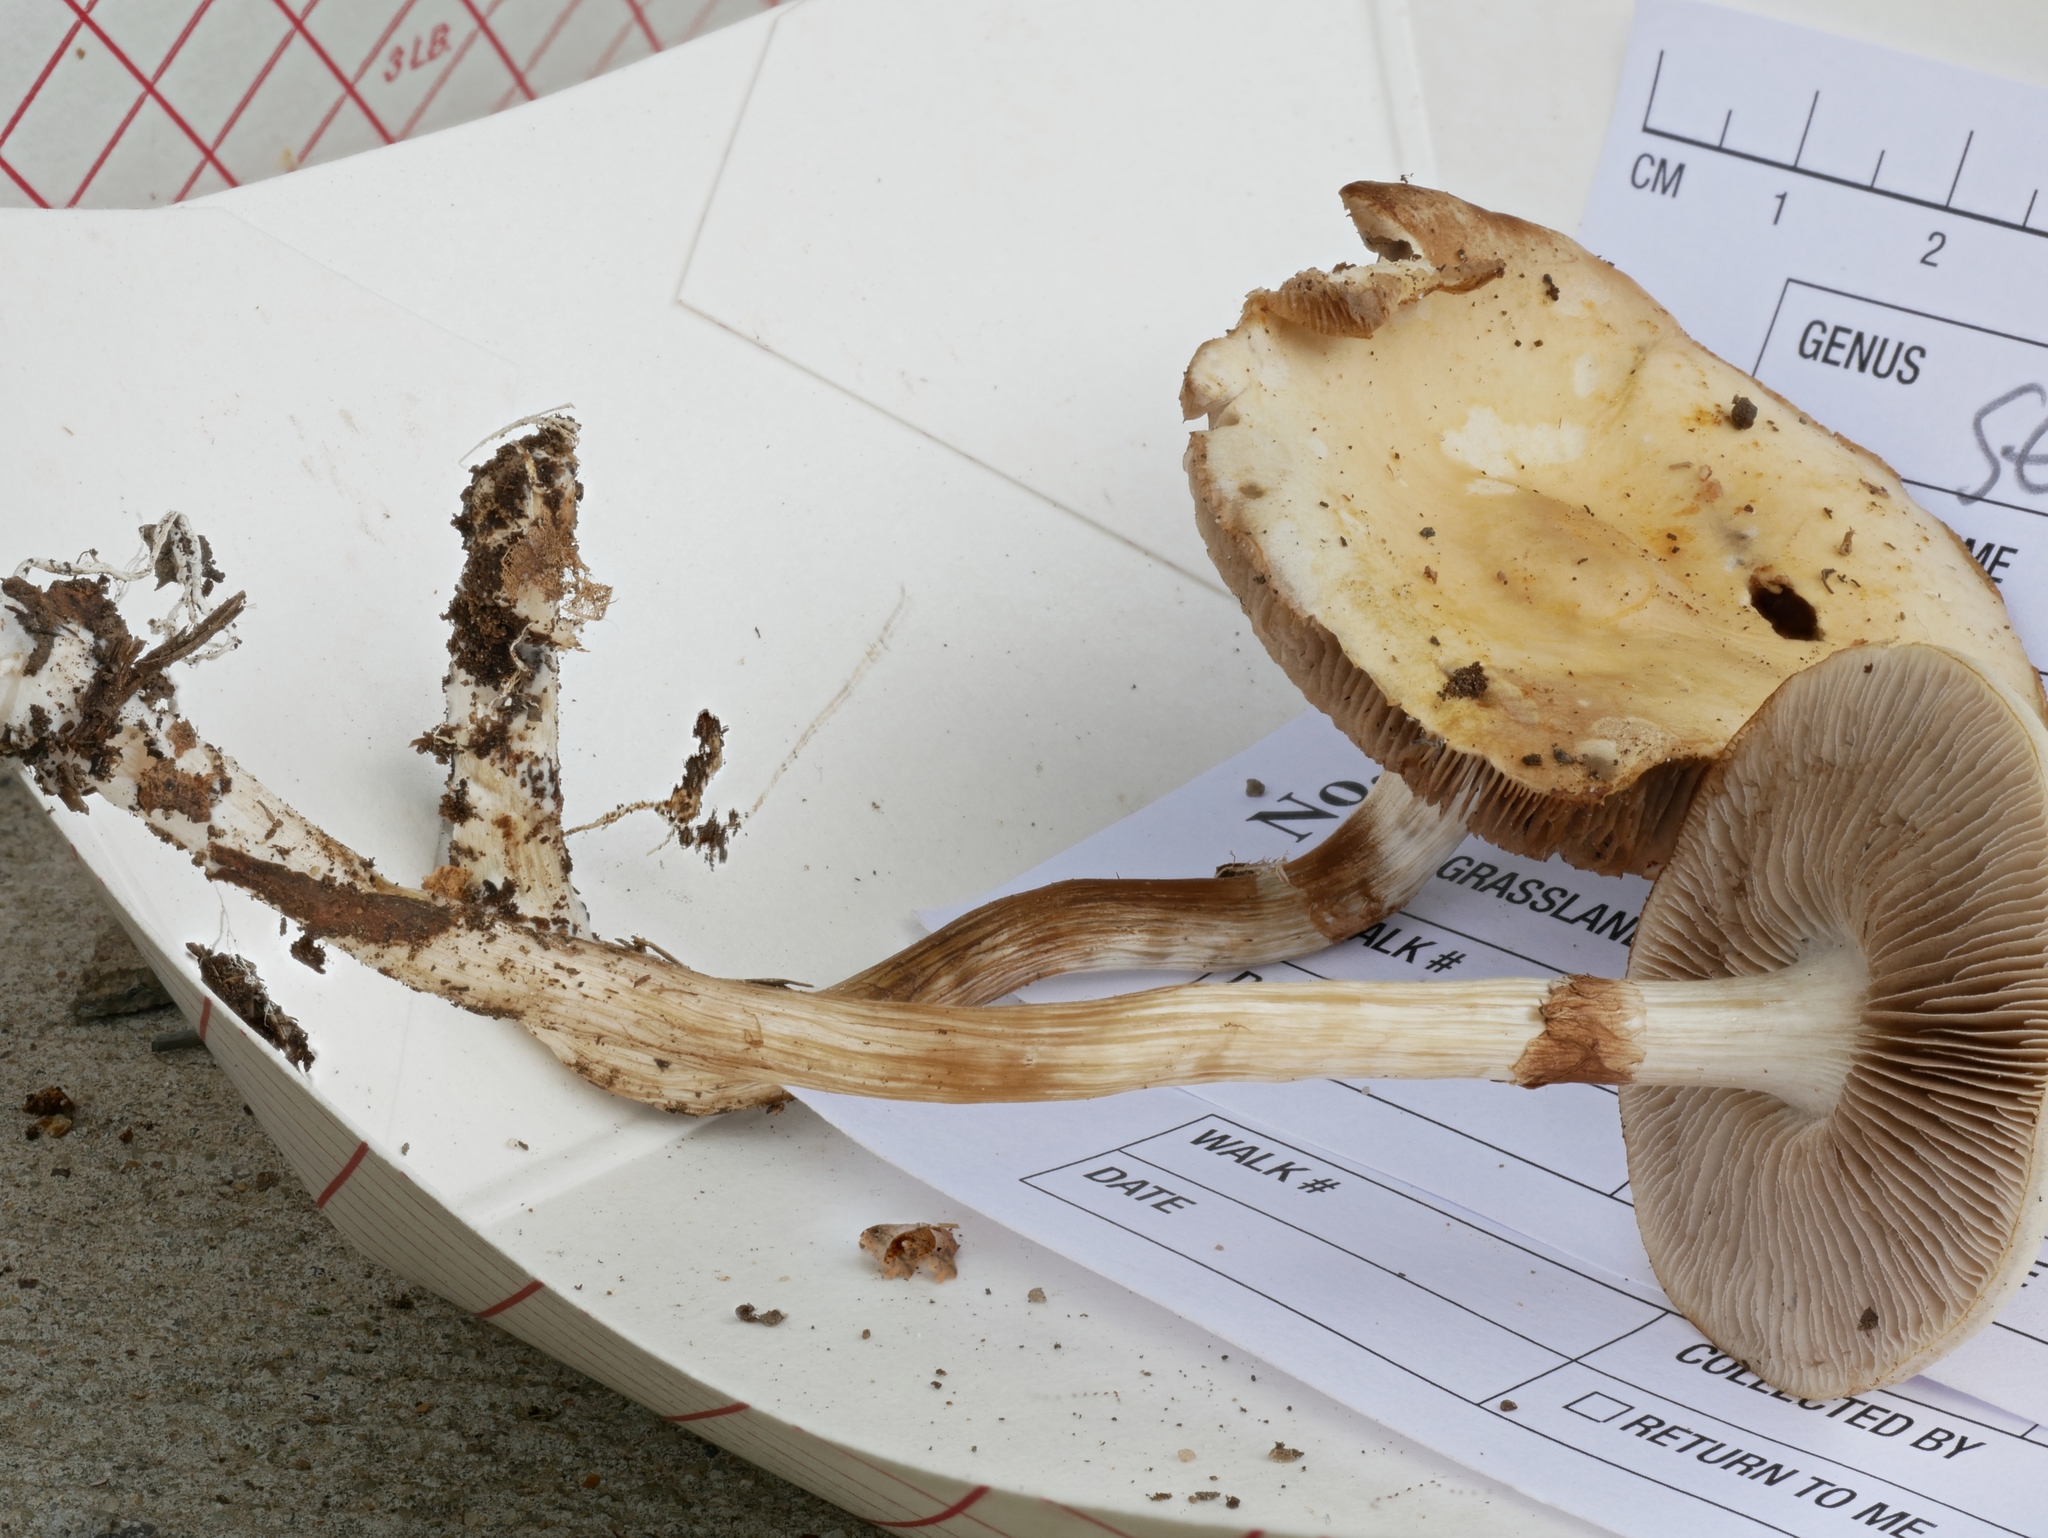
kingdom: Fungi
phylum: Basidiomycota
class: Agaricomycetes
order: Agaricales
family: Strophariaceae
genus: Stropharia
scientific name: Stropharia melanosperma
